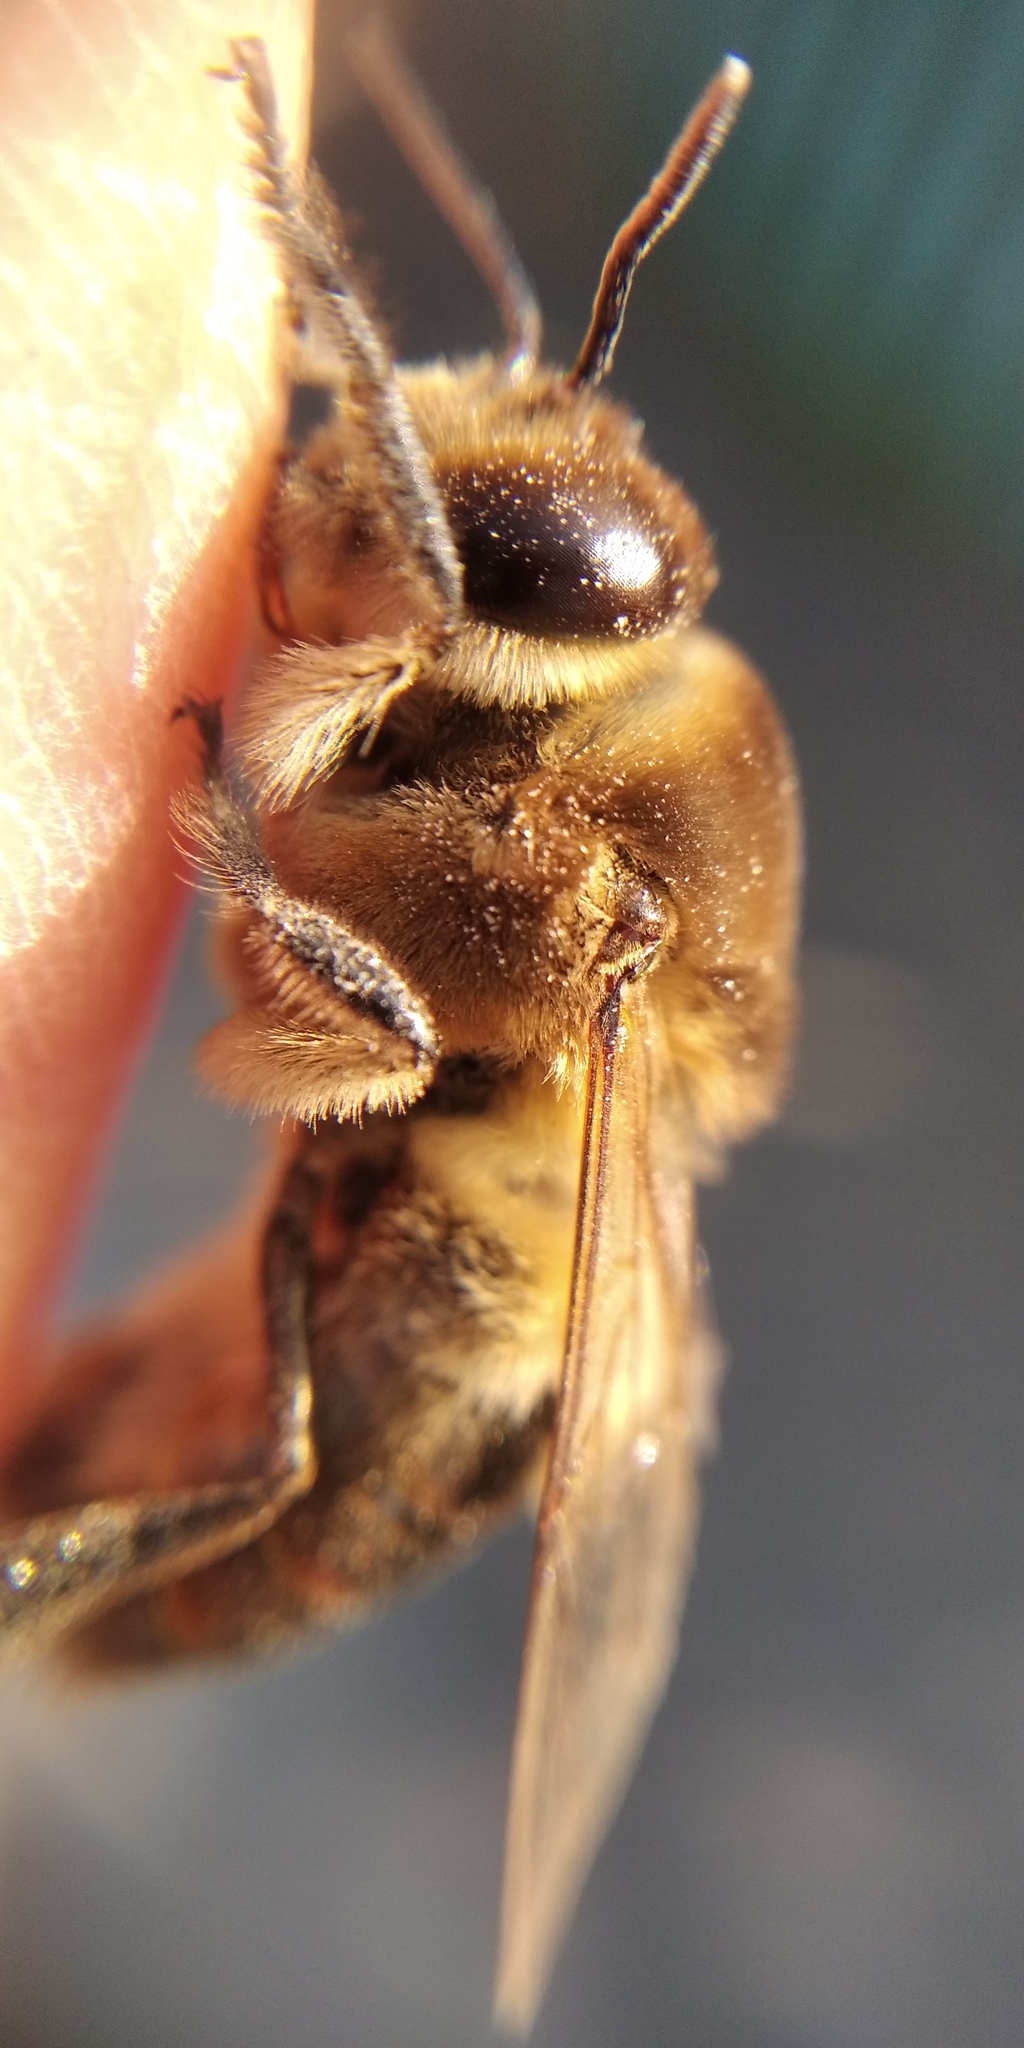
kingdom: Animalia
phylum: Arthropoda
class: Insecta
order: Hymenoptera
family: Apidae
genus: Apis
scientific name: Apis mellifera
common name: Honey bee
